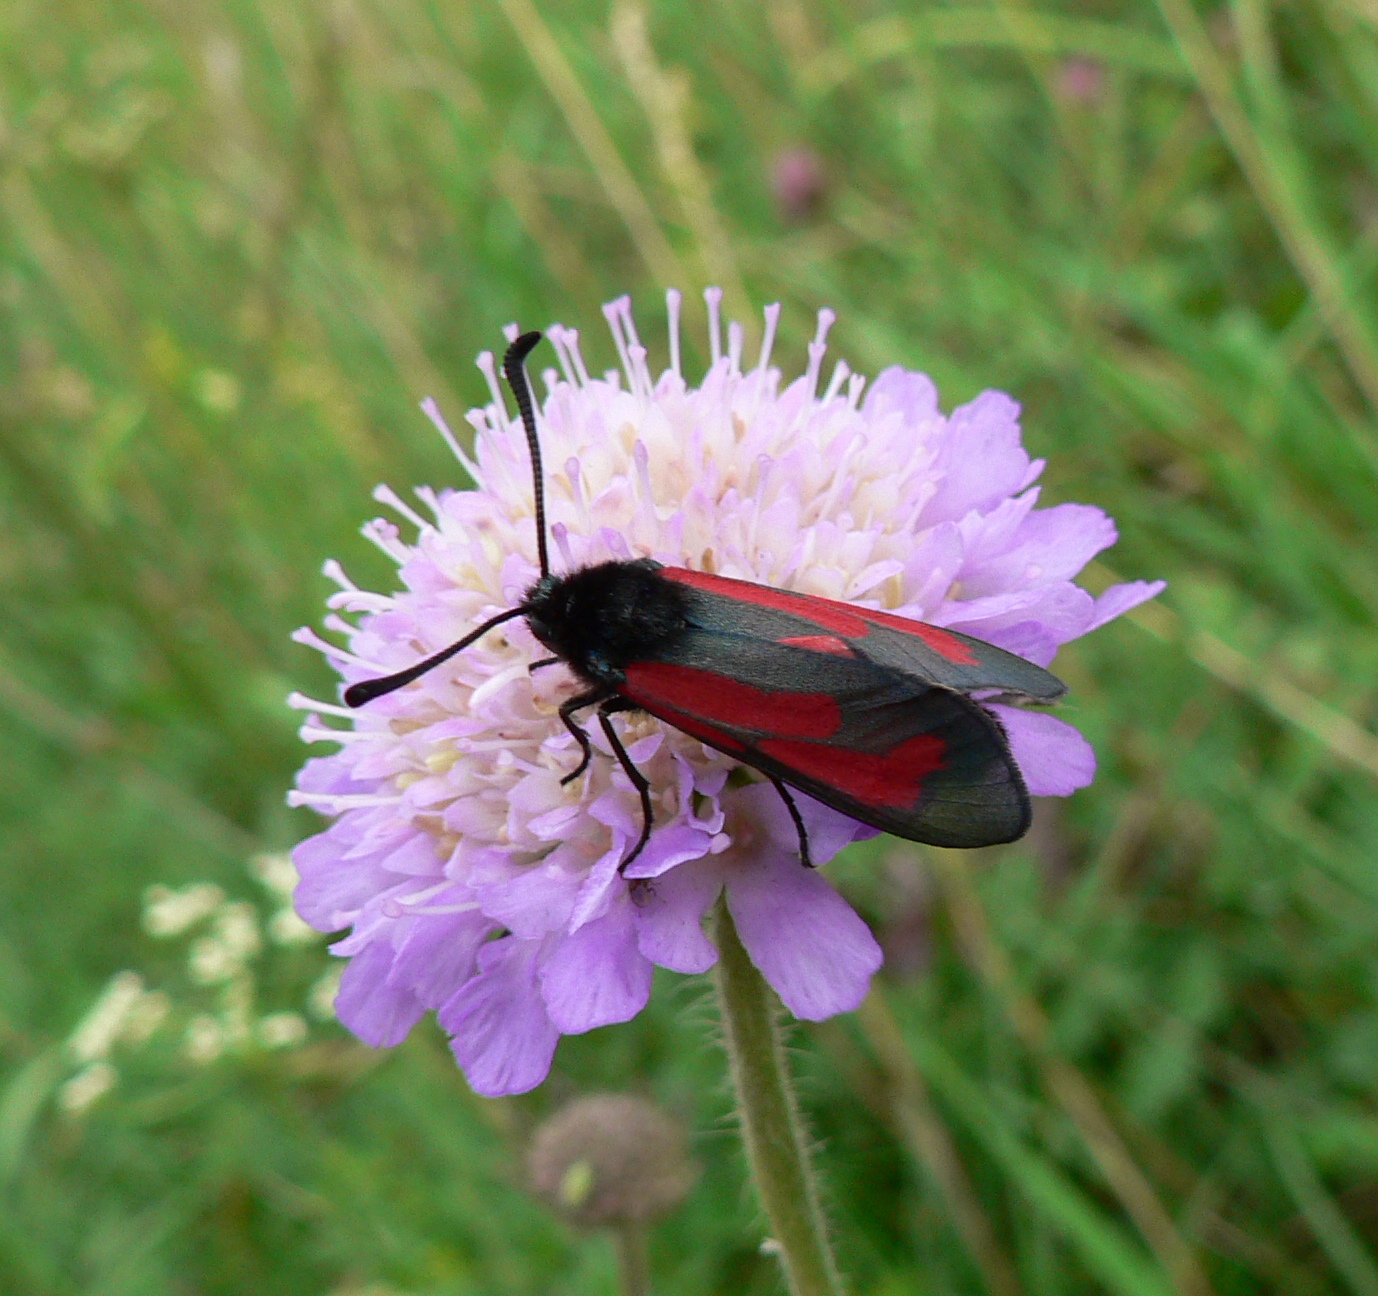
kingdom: Animalia
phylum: Arthropoda
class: Insecta
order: Lepidoptera
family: Zygaenidae
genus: Zygaena
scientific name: Zygaena minos
